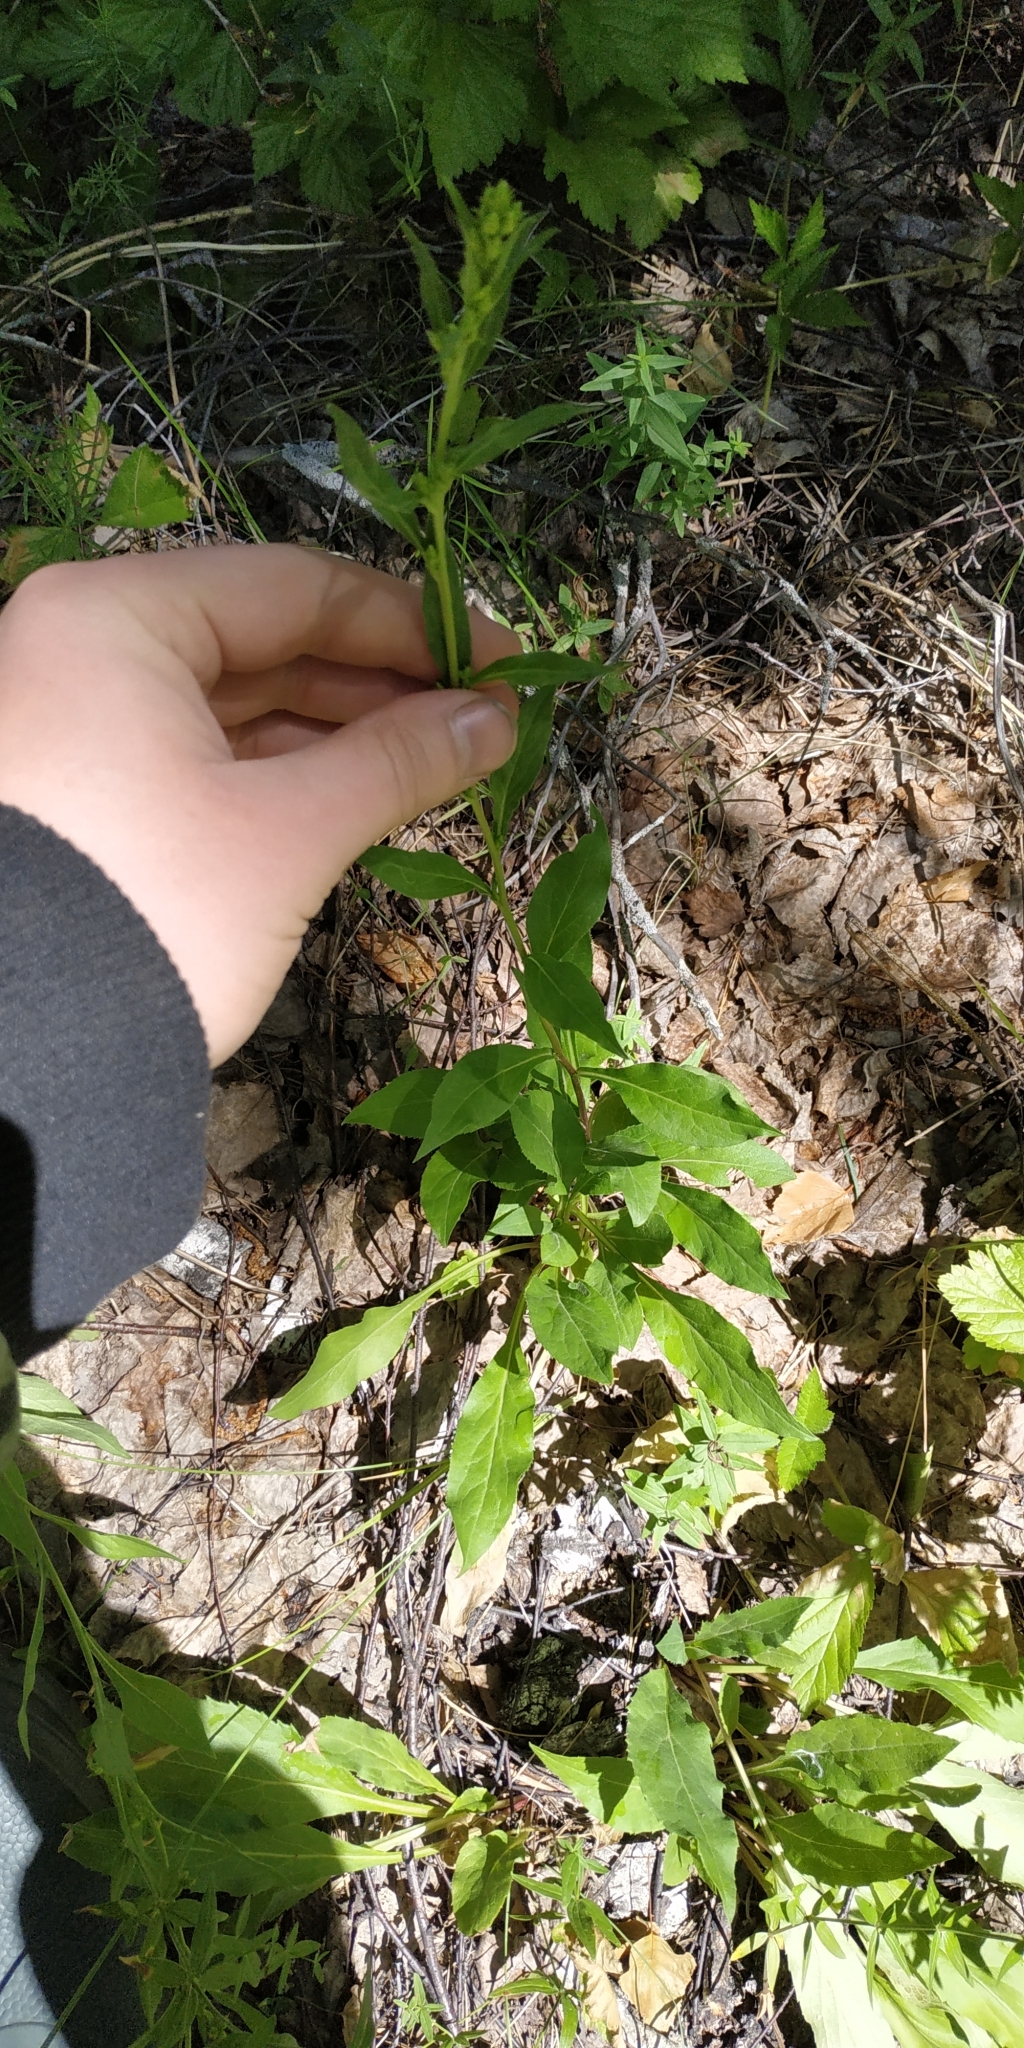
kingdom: Plantae
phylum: Tracheophyta
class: Magnoliopsida
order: Asterales
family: Asteraceae
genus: Solidago
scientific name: Solidago virgaurea
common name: Goldenrod
